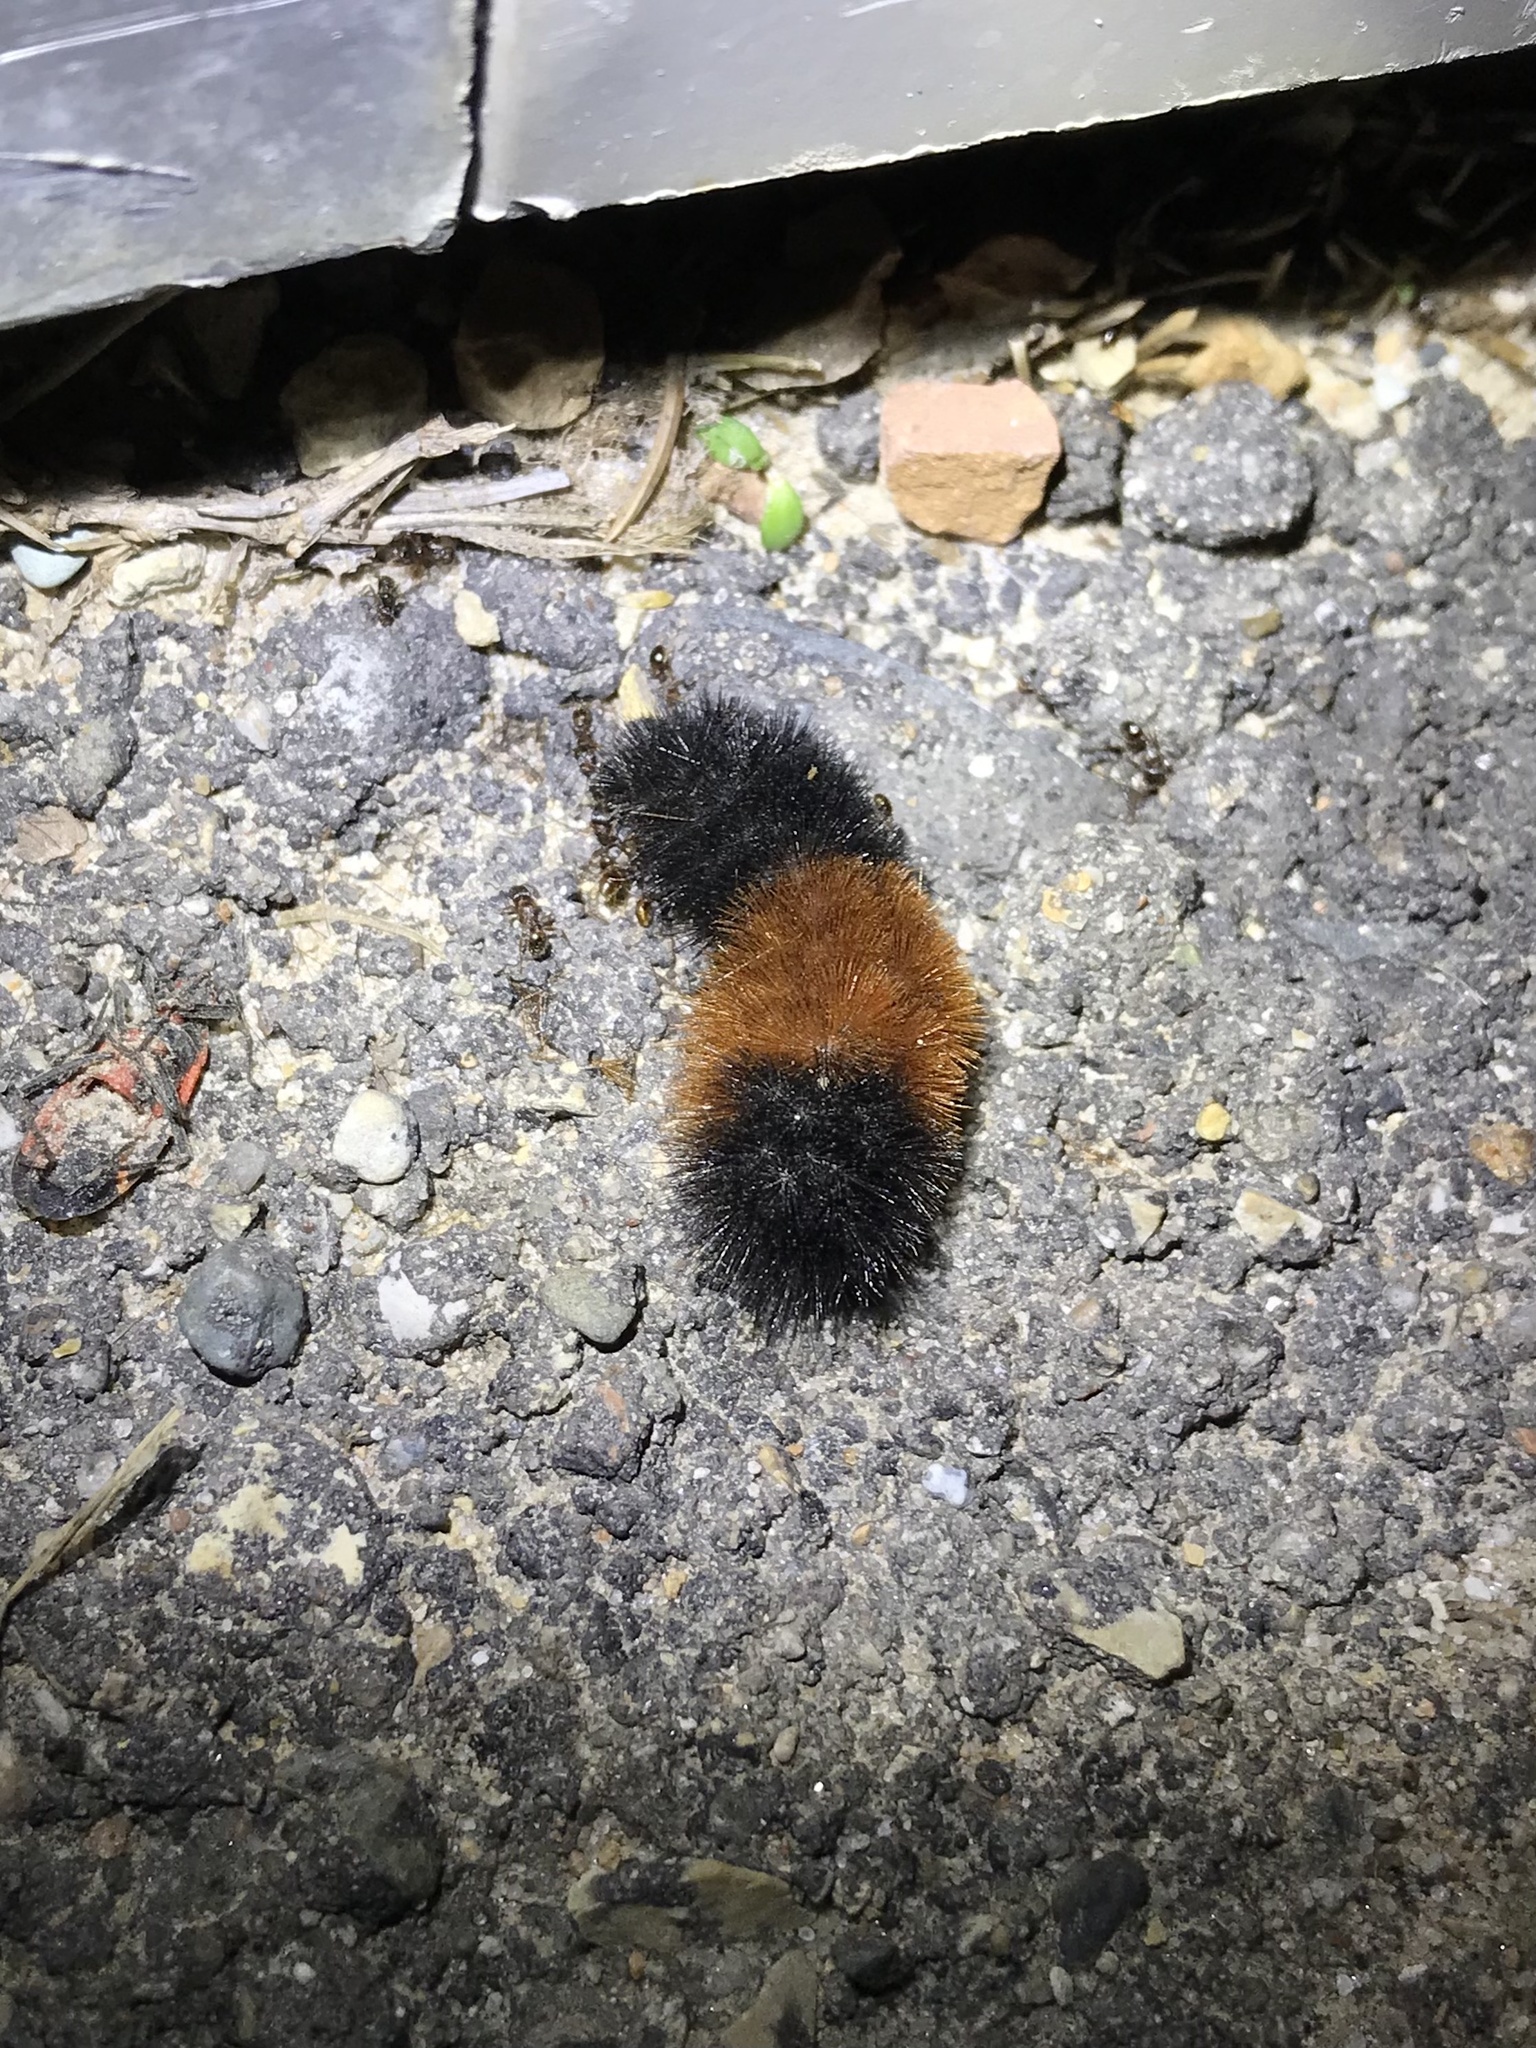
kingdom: Animalia
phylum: Arthropoda
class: Insecta
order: Lepidoptera
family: Erebidae
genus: Pyrrharctia
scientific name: Pyrrharctia isabella
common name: Isabella tiger moth
